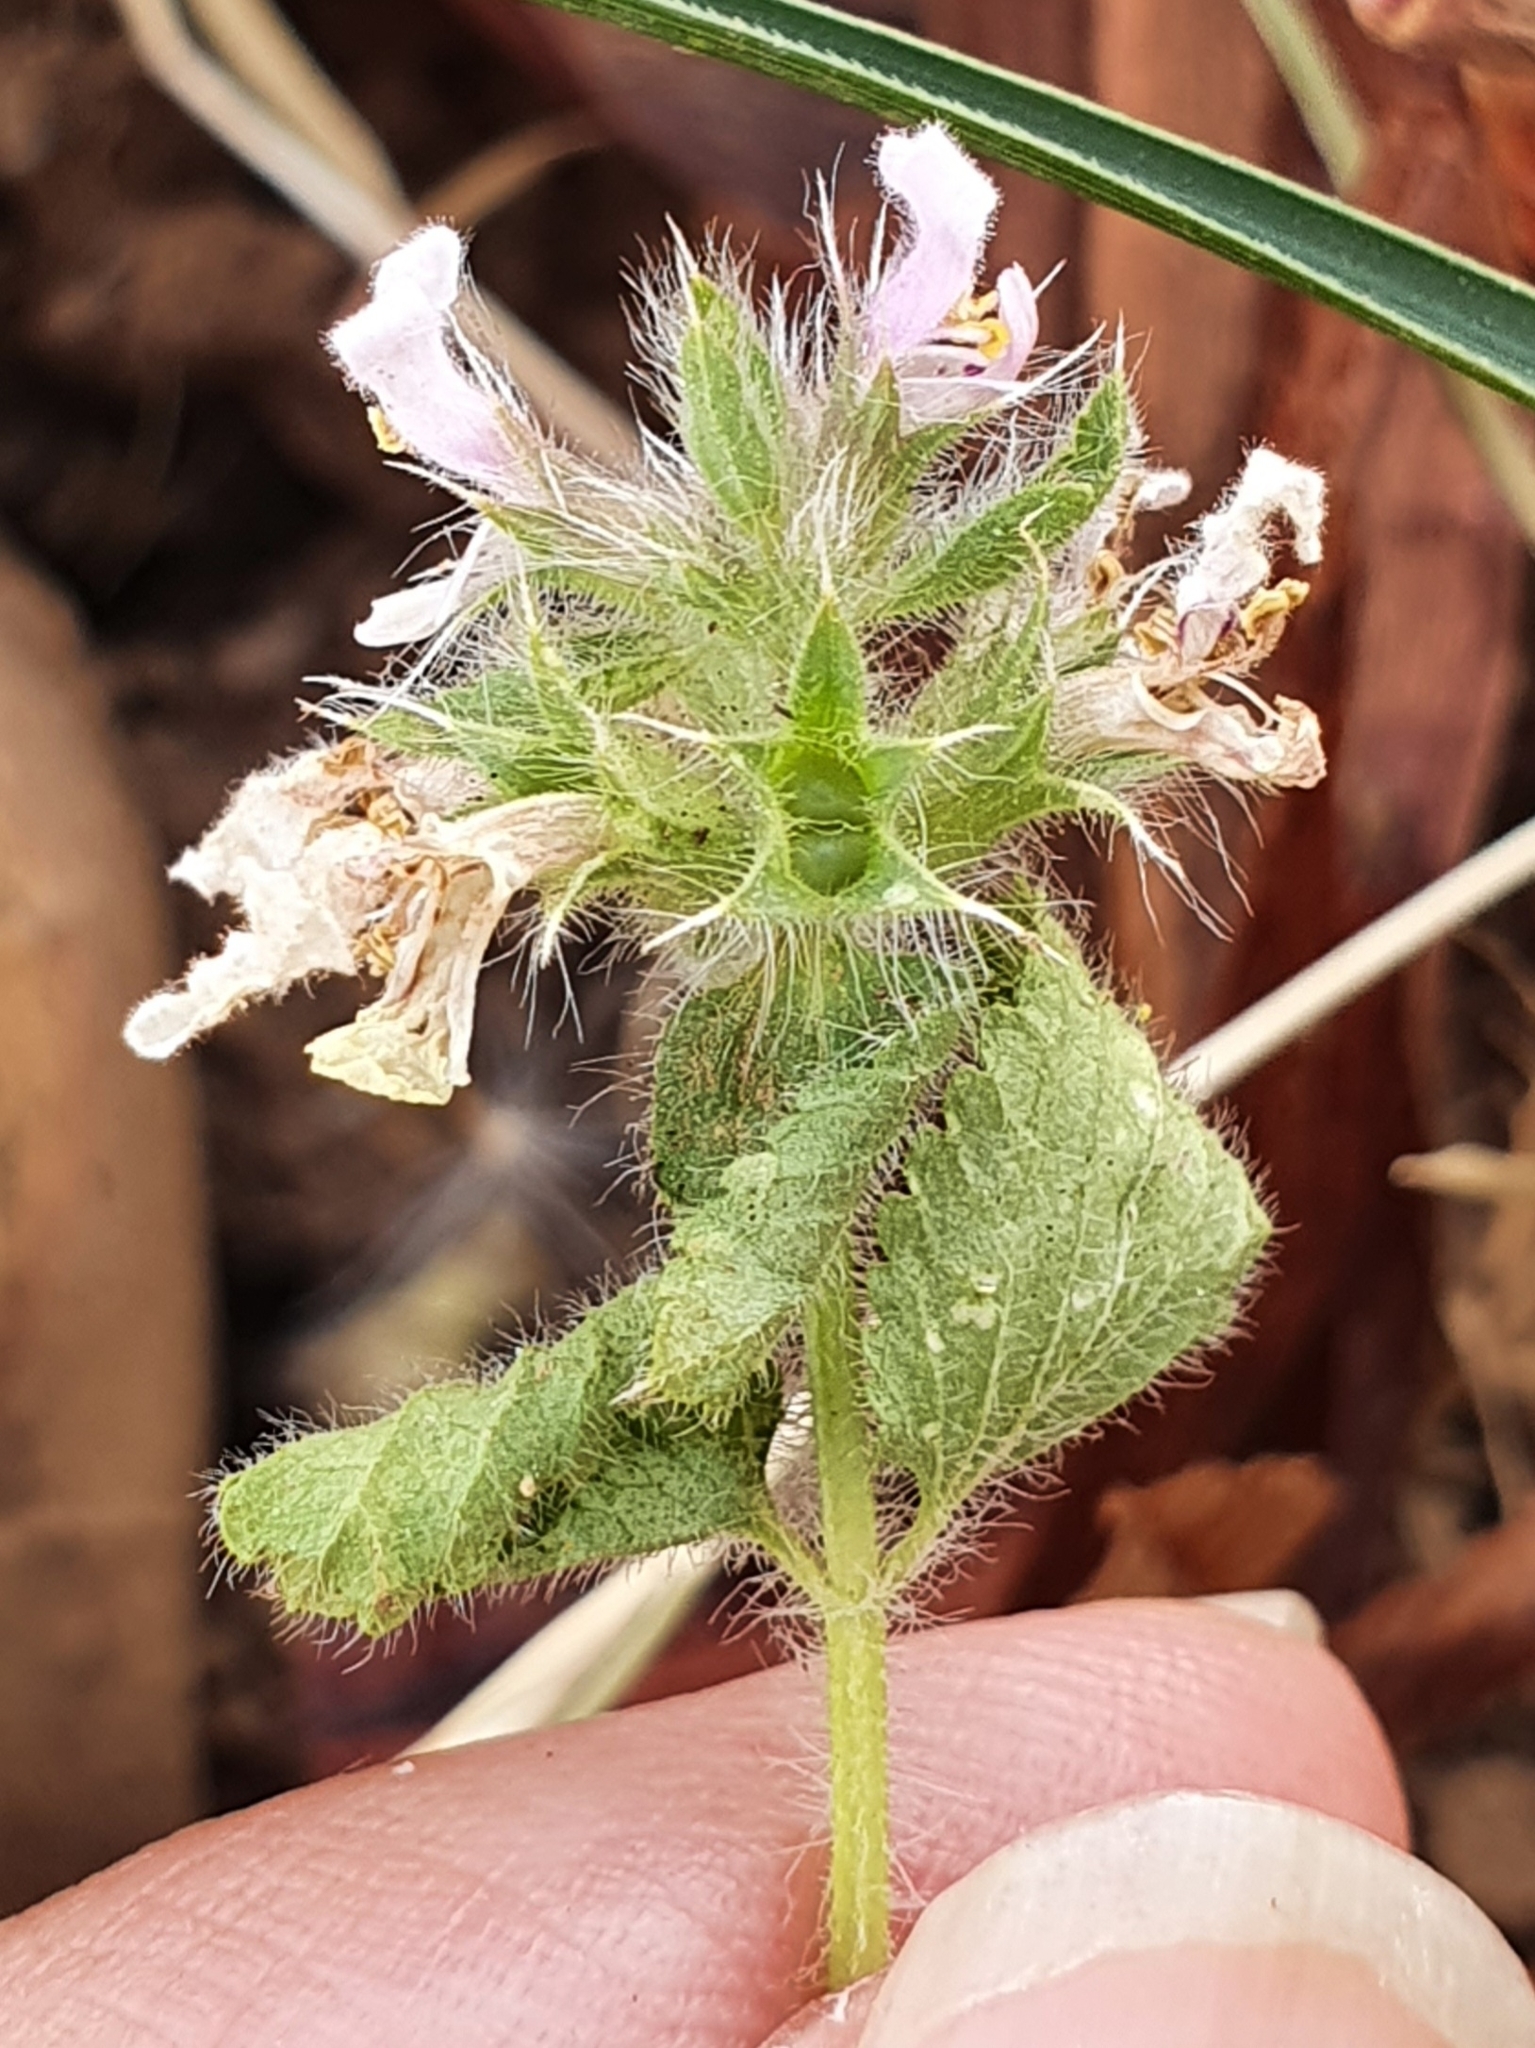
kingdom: Plantae
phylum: Tracheophyta
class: Magnoliopsida
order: Lamiales
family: Lamiaceae
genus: Stachys
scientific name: Stachys ocymastrum
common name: Italian hedgenettle
